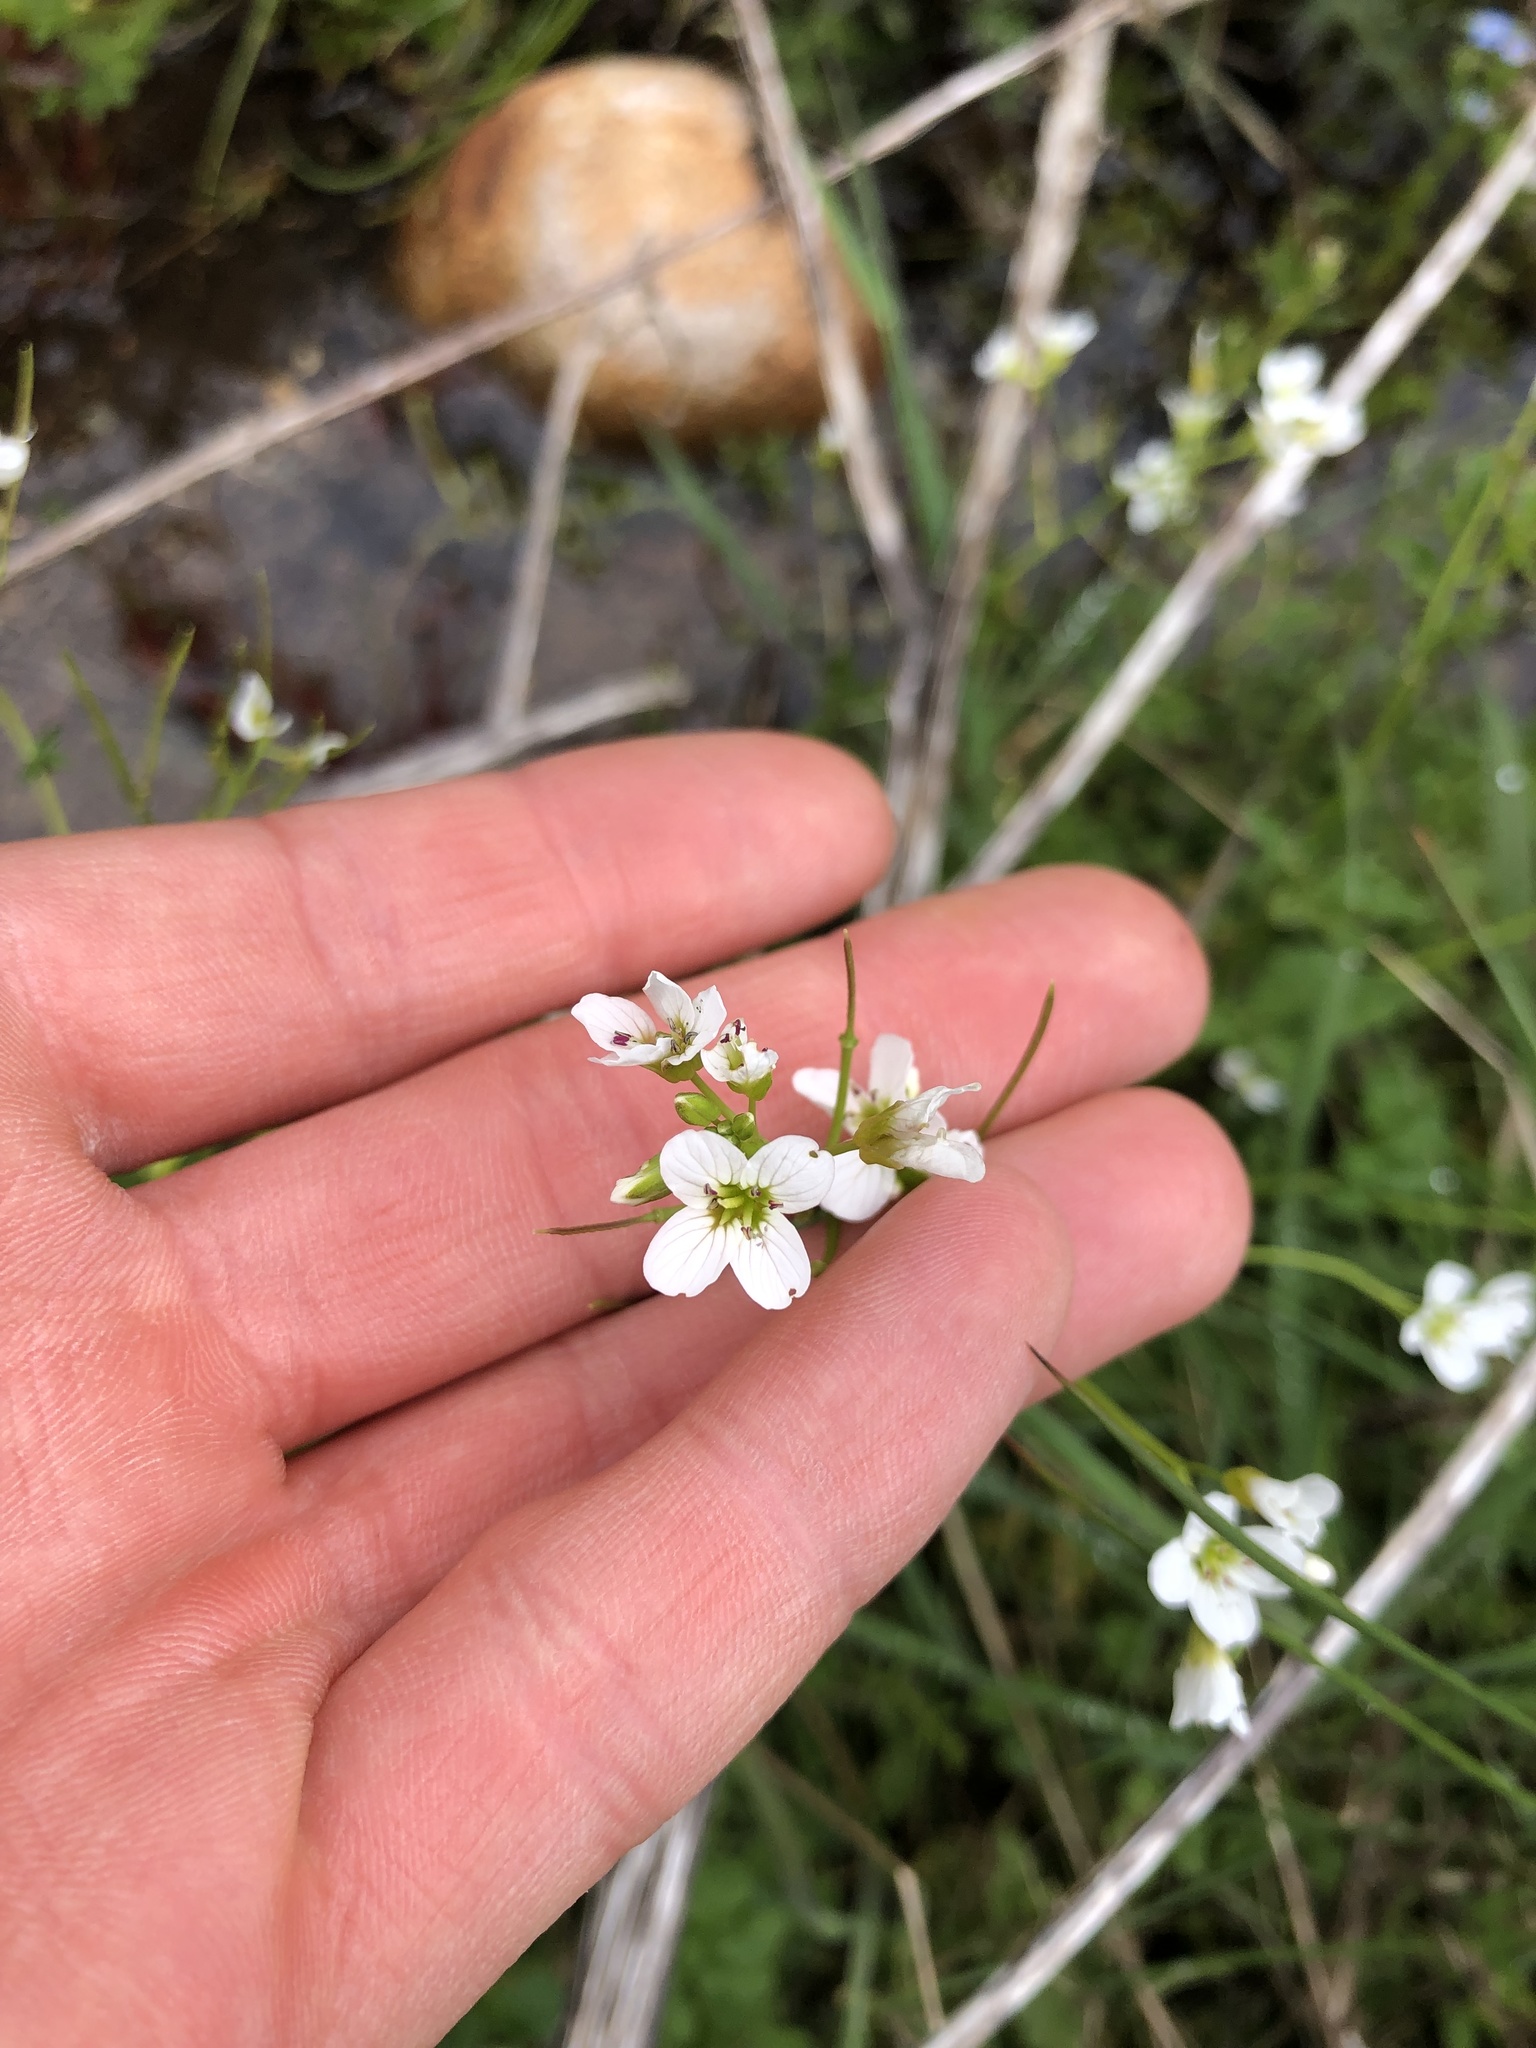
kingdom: Plantae
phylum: Tracheophyta
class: Magnoliopsida
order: Brassicales
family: Brassicaceae
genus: Cardamine
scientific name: Cardamine amara
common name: Large bitter-cress
